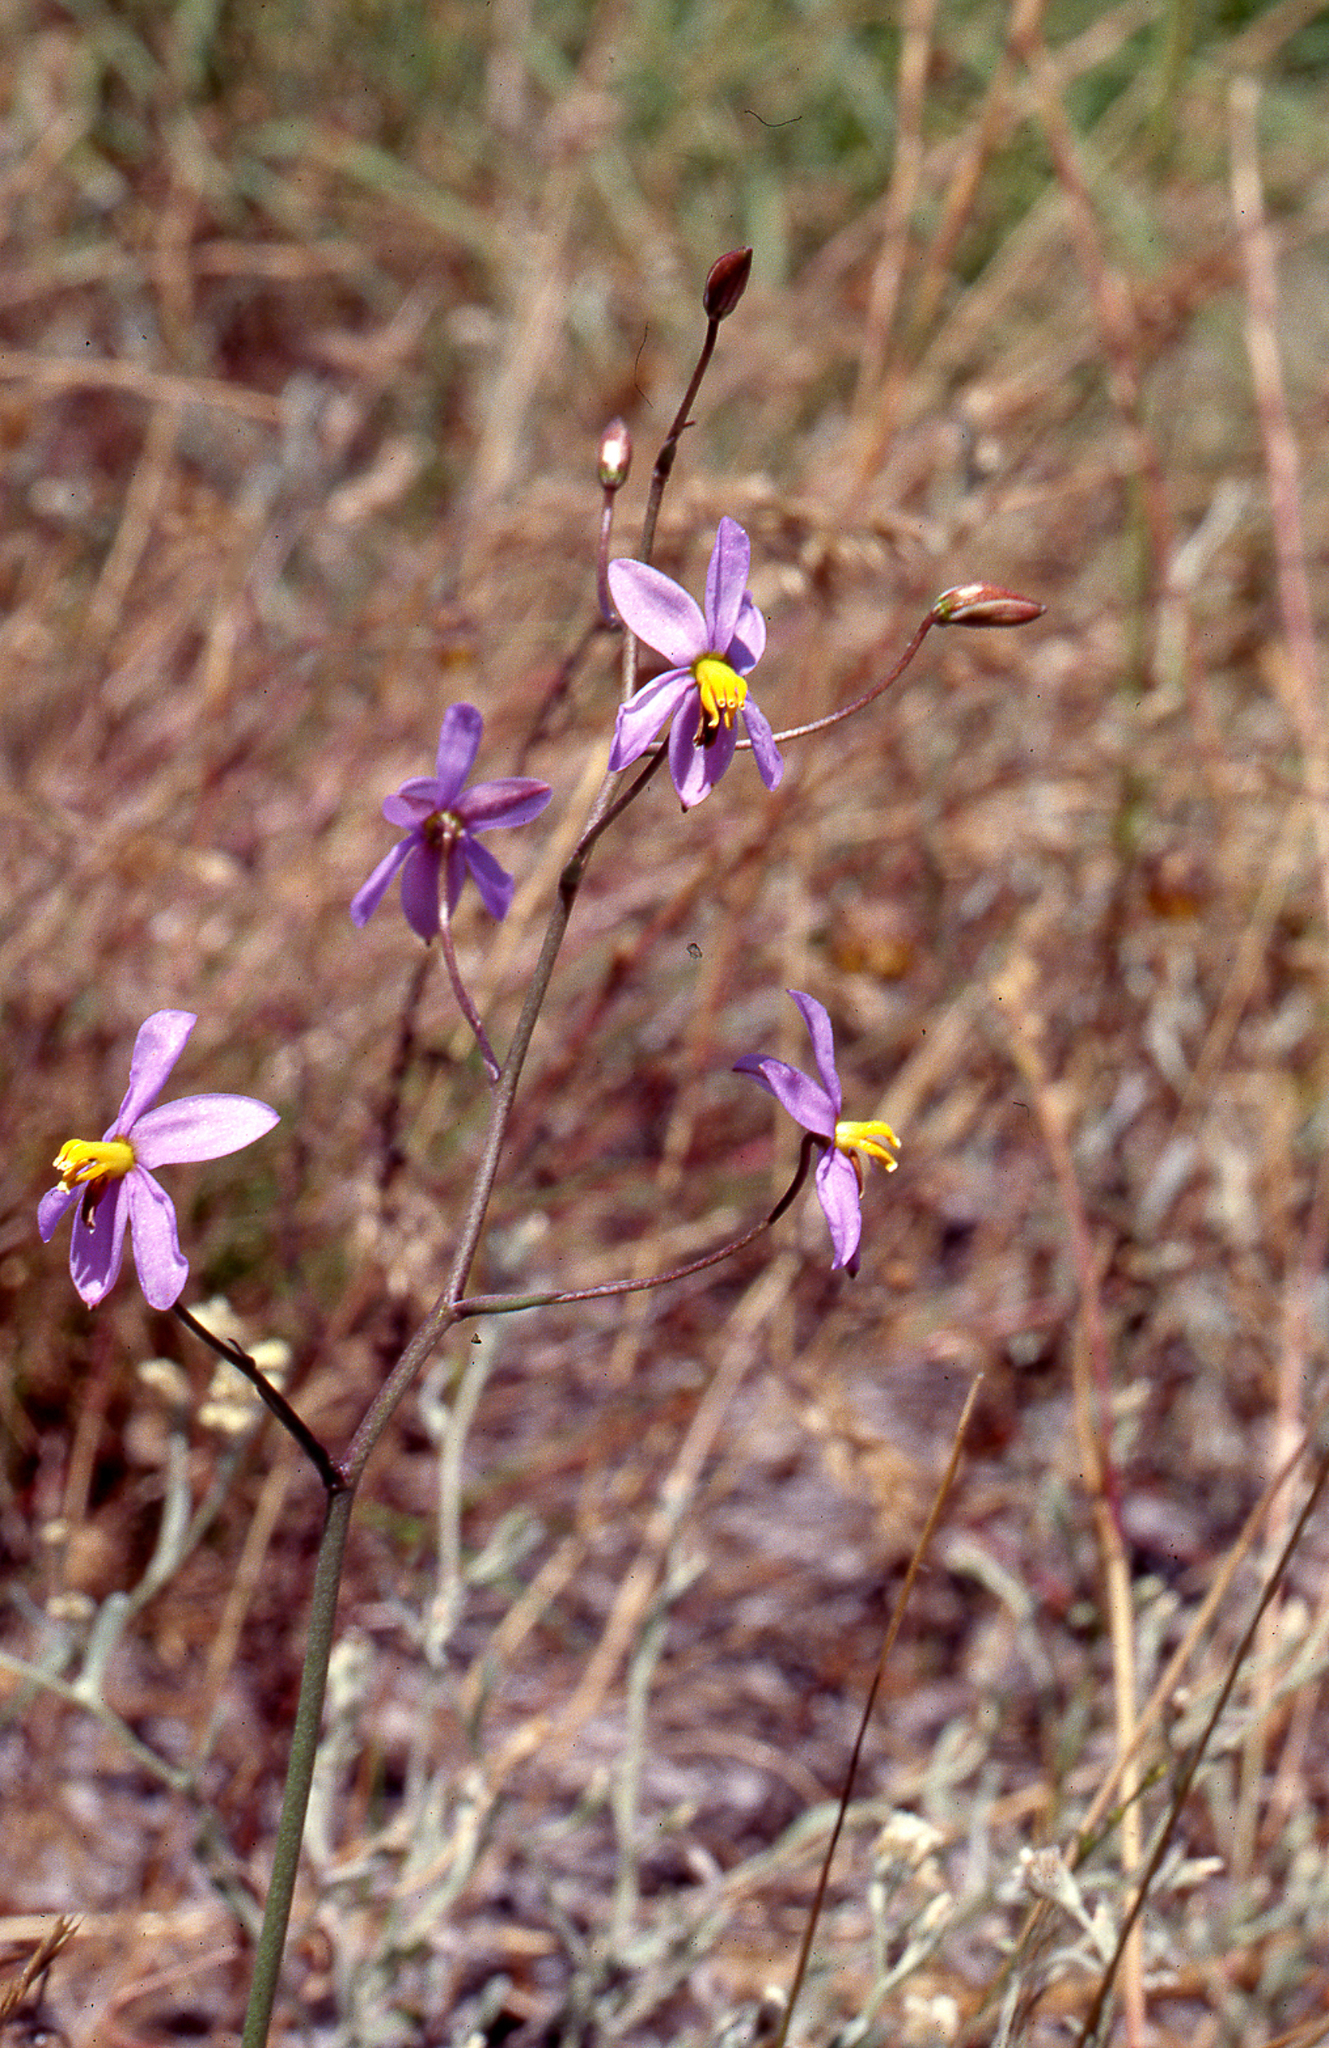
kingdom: Plantae
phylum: Tracheophyta
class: Liliopsida
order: Asparagales
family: Tecophilaeaceae
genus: Cyanella
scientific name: Cyanella hyacinthoides
